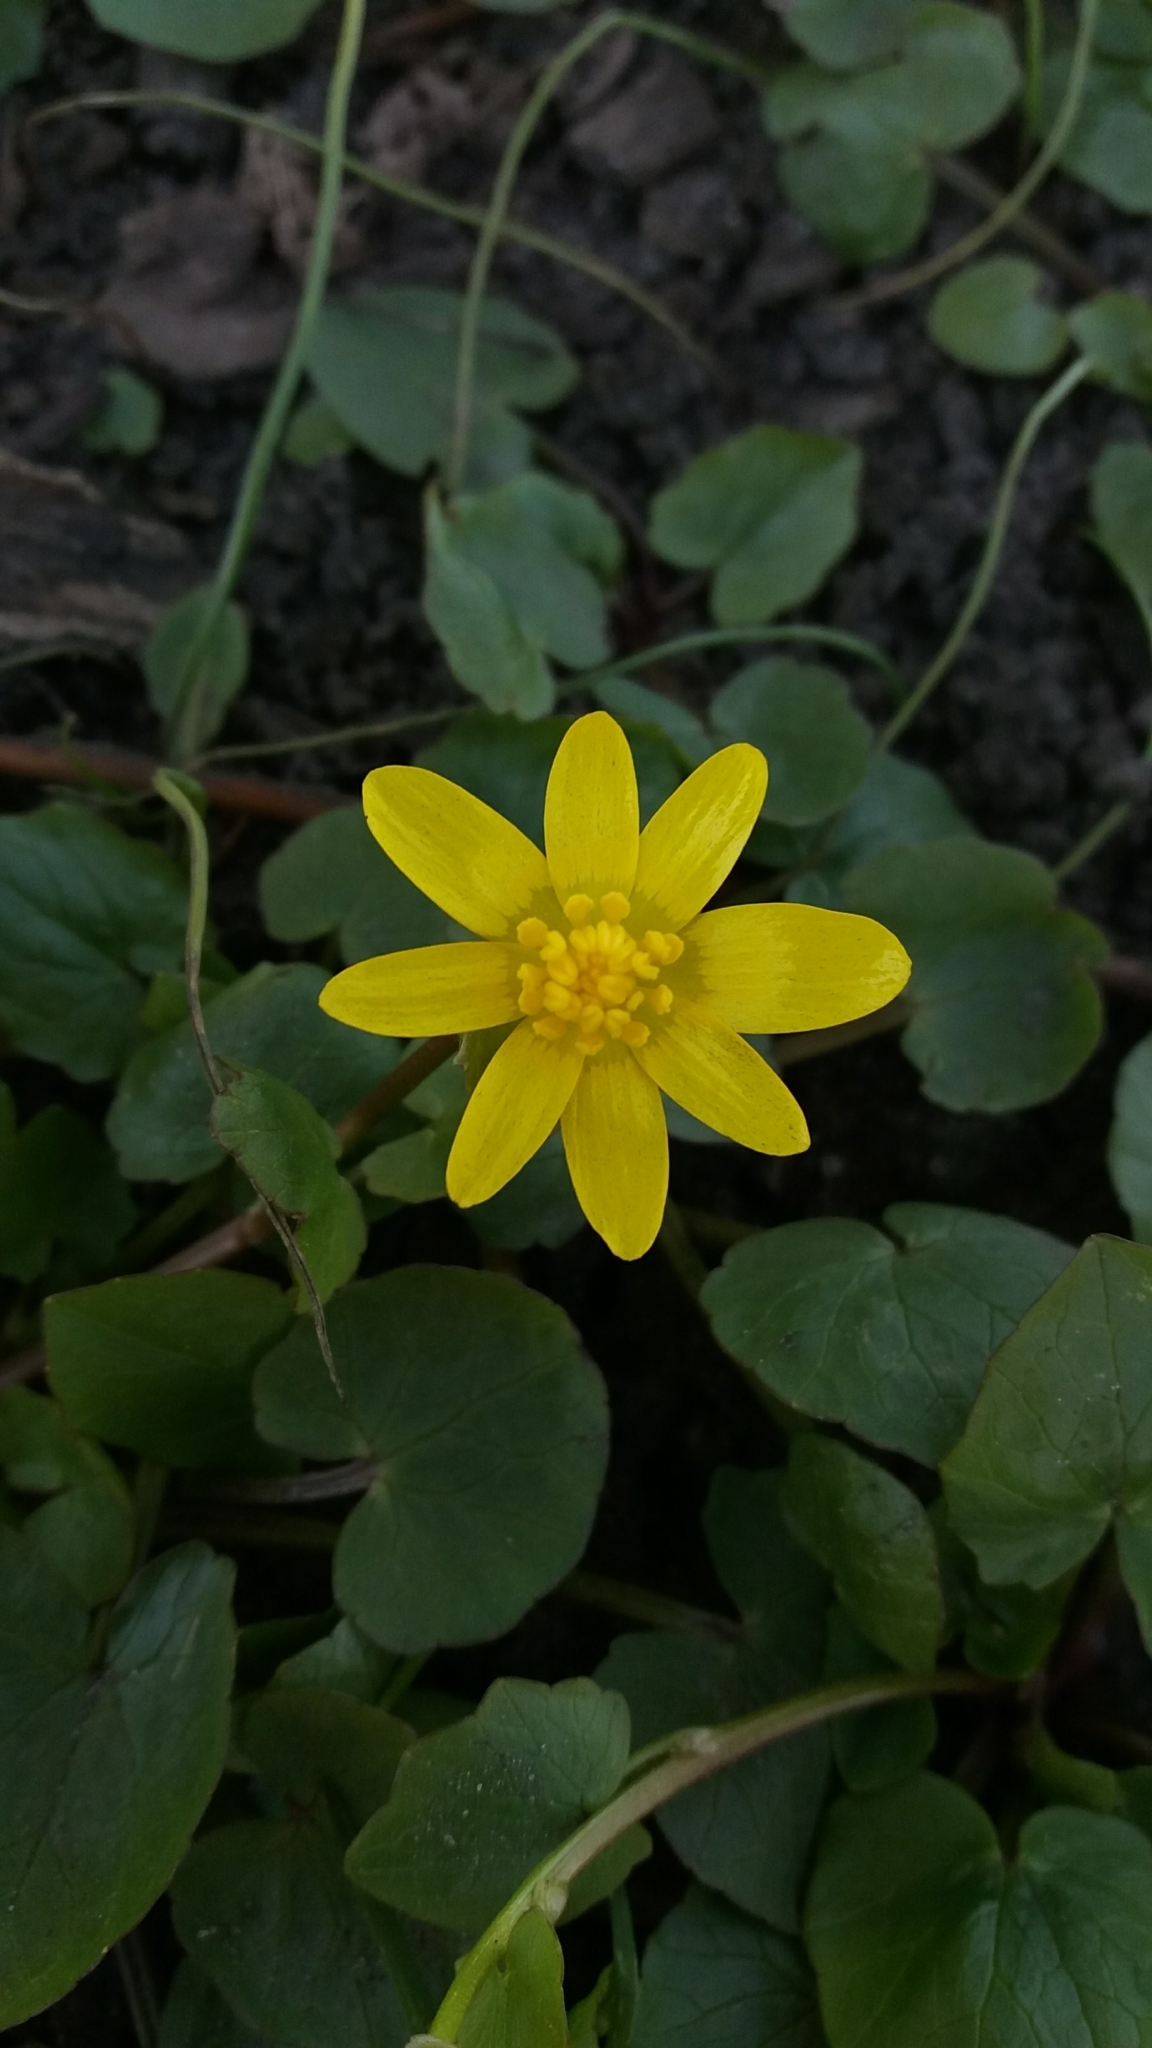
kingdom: Plantae
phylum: Tracheophyta
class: Magnoliopsida
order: Ranunculales
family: Ranunculaceae
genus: Ficaria
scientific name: Ficaria verna
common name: Lesser celandine
